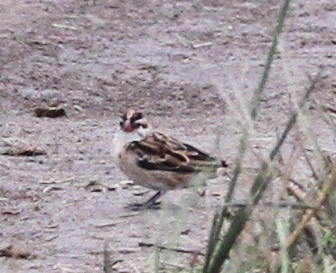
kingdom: Animalia
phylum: Chordata
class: Aves
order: Passeriformes
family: Viduidae
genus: Vidua
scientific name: Vidua macroura
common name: Pin-tailed whydah
